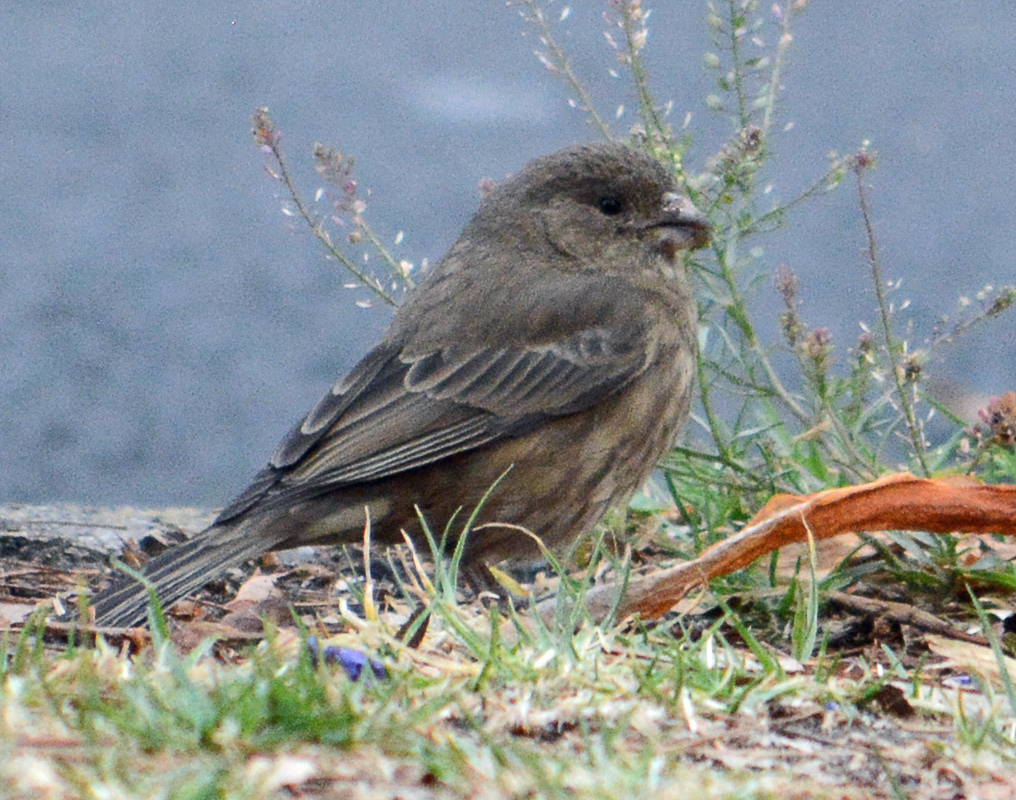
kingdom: Animalia
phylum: Chordata
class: Aves
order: Passeriformes
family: Fringillidae
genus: Haemorhous
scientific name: Haemorhous mexicanus
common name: House finch
